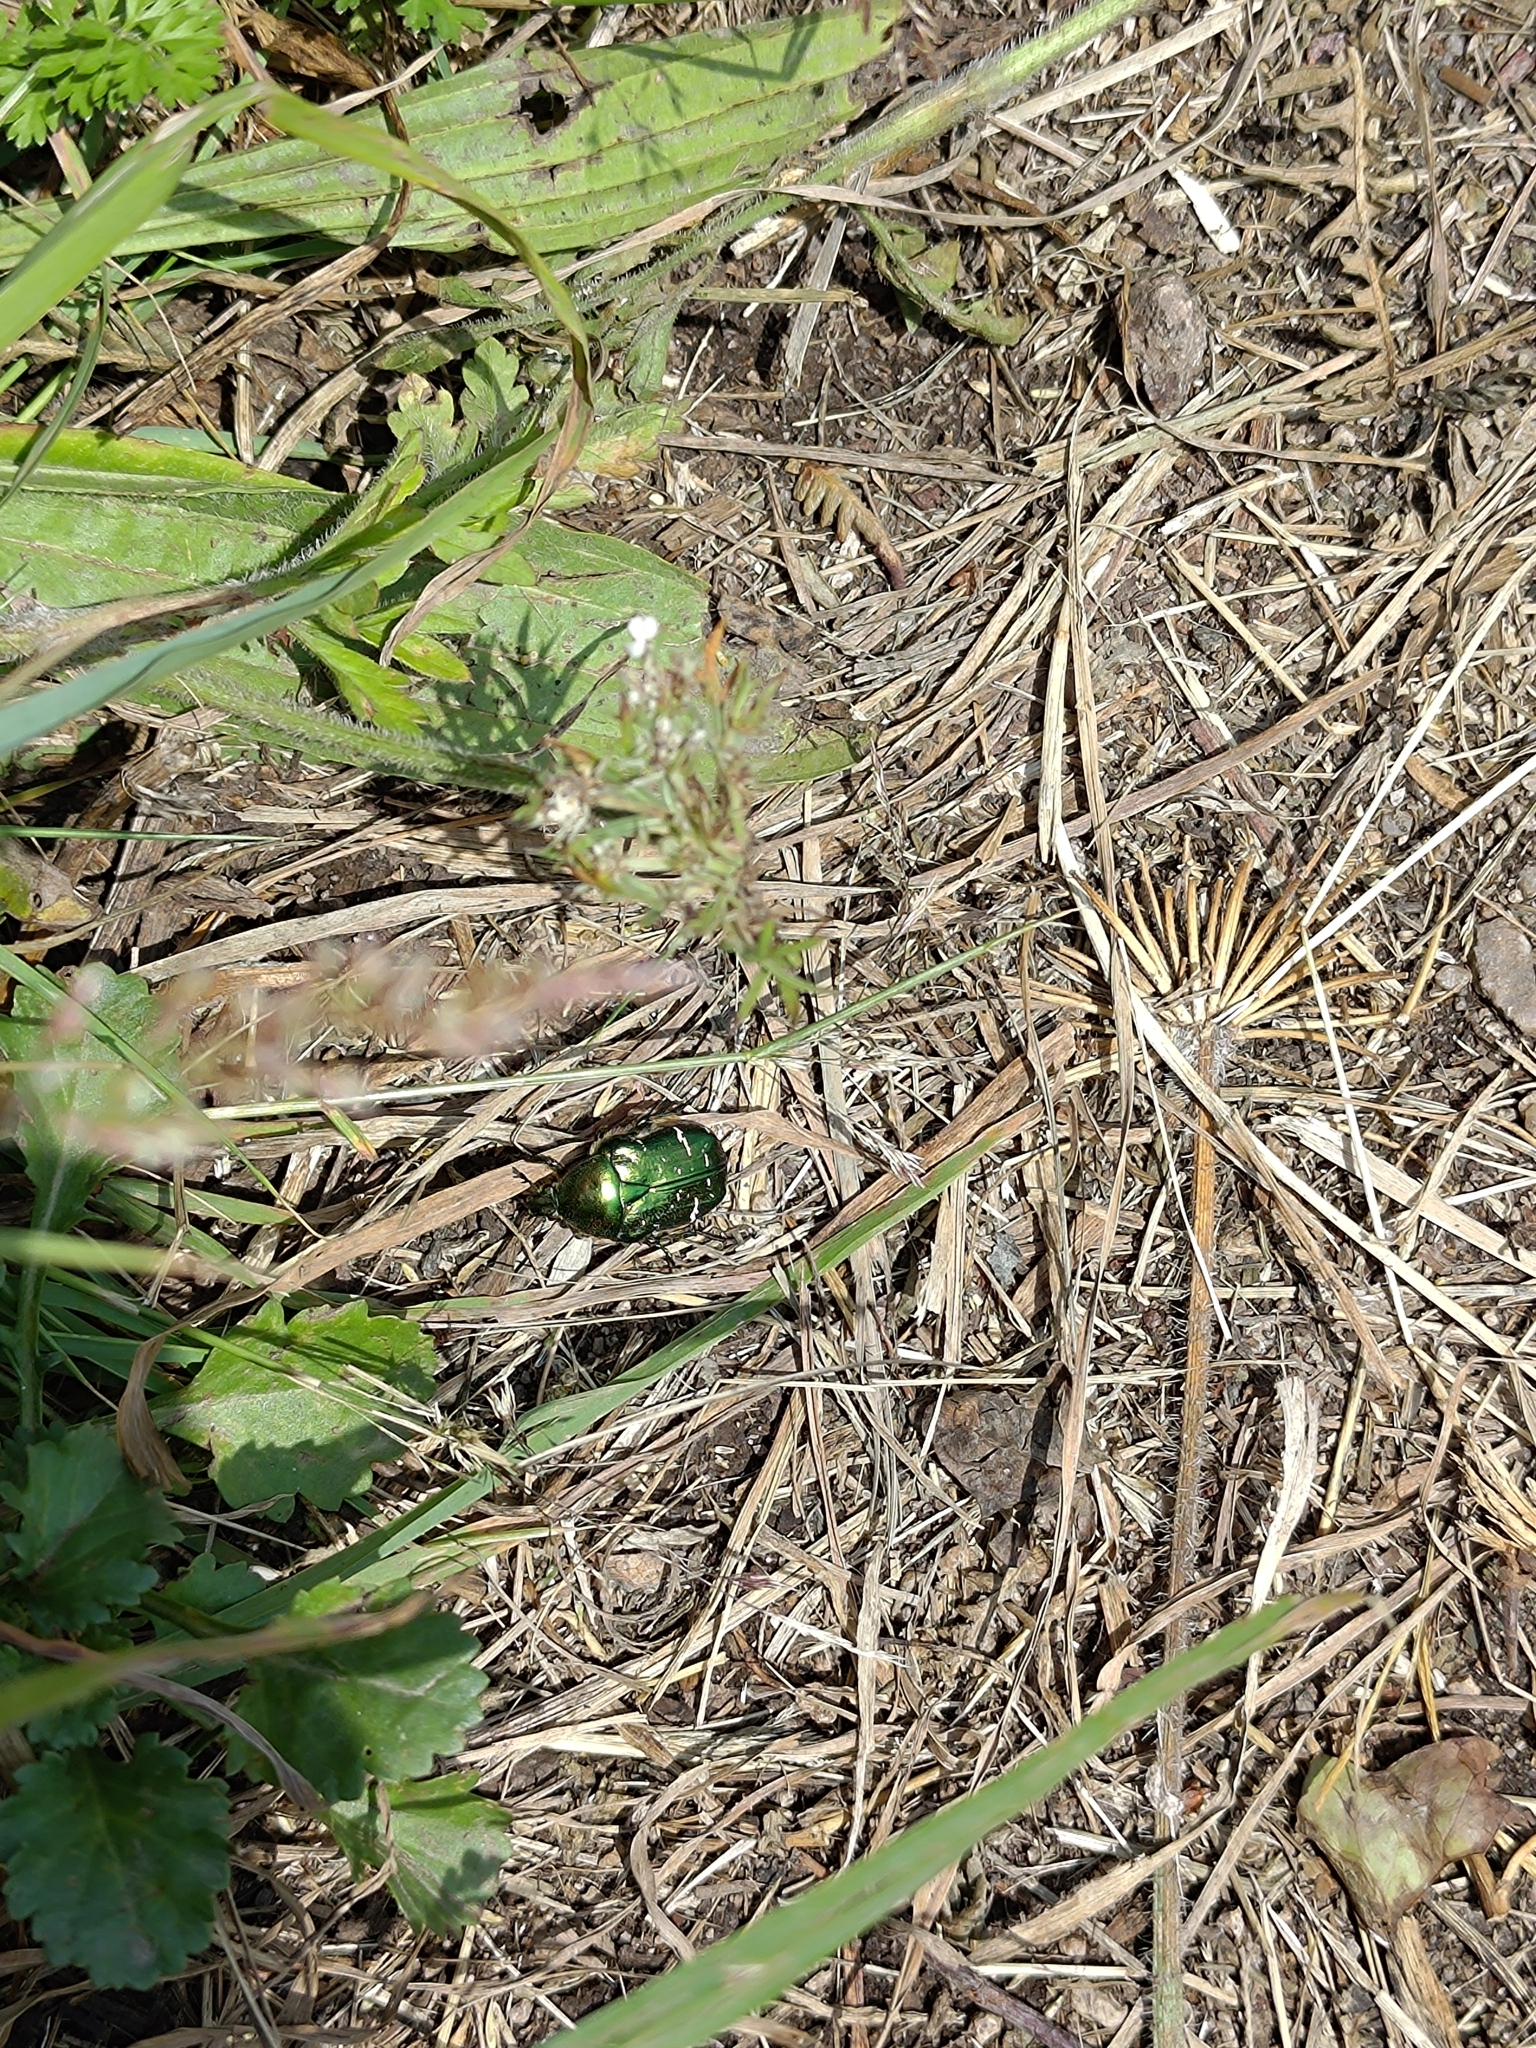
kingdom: Animalia
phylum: Arthropoda
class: Insecta
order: Coleoptera
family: Scarabaeidae
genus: Cetonia
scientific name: Cetonia aurata
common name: Rose chafer
